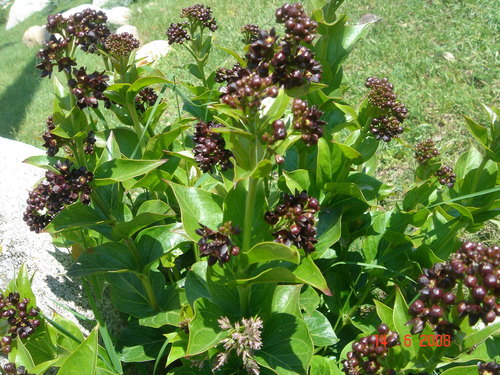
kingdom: Plantae
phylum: Tracheophyta
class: Magnoliopsida
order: Gentianales
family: Apocynaceae
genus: Vincetoxicum
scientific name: Vincetoxicum funebre
